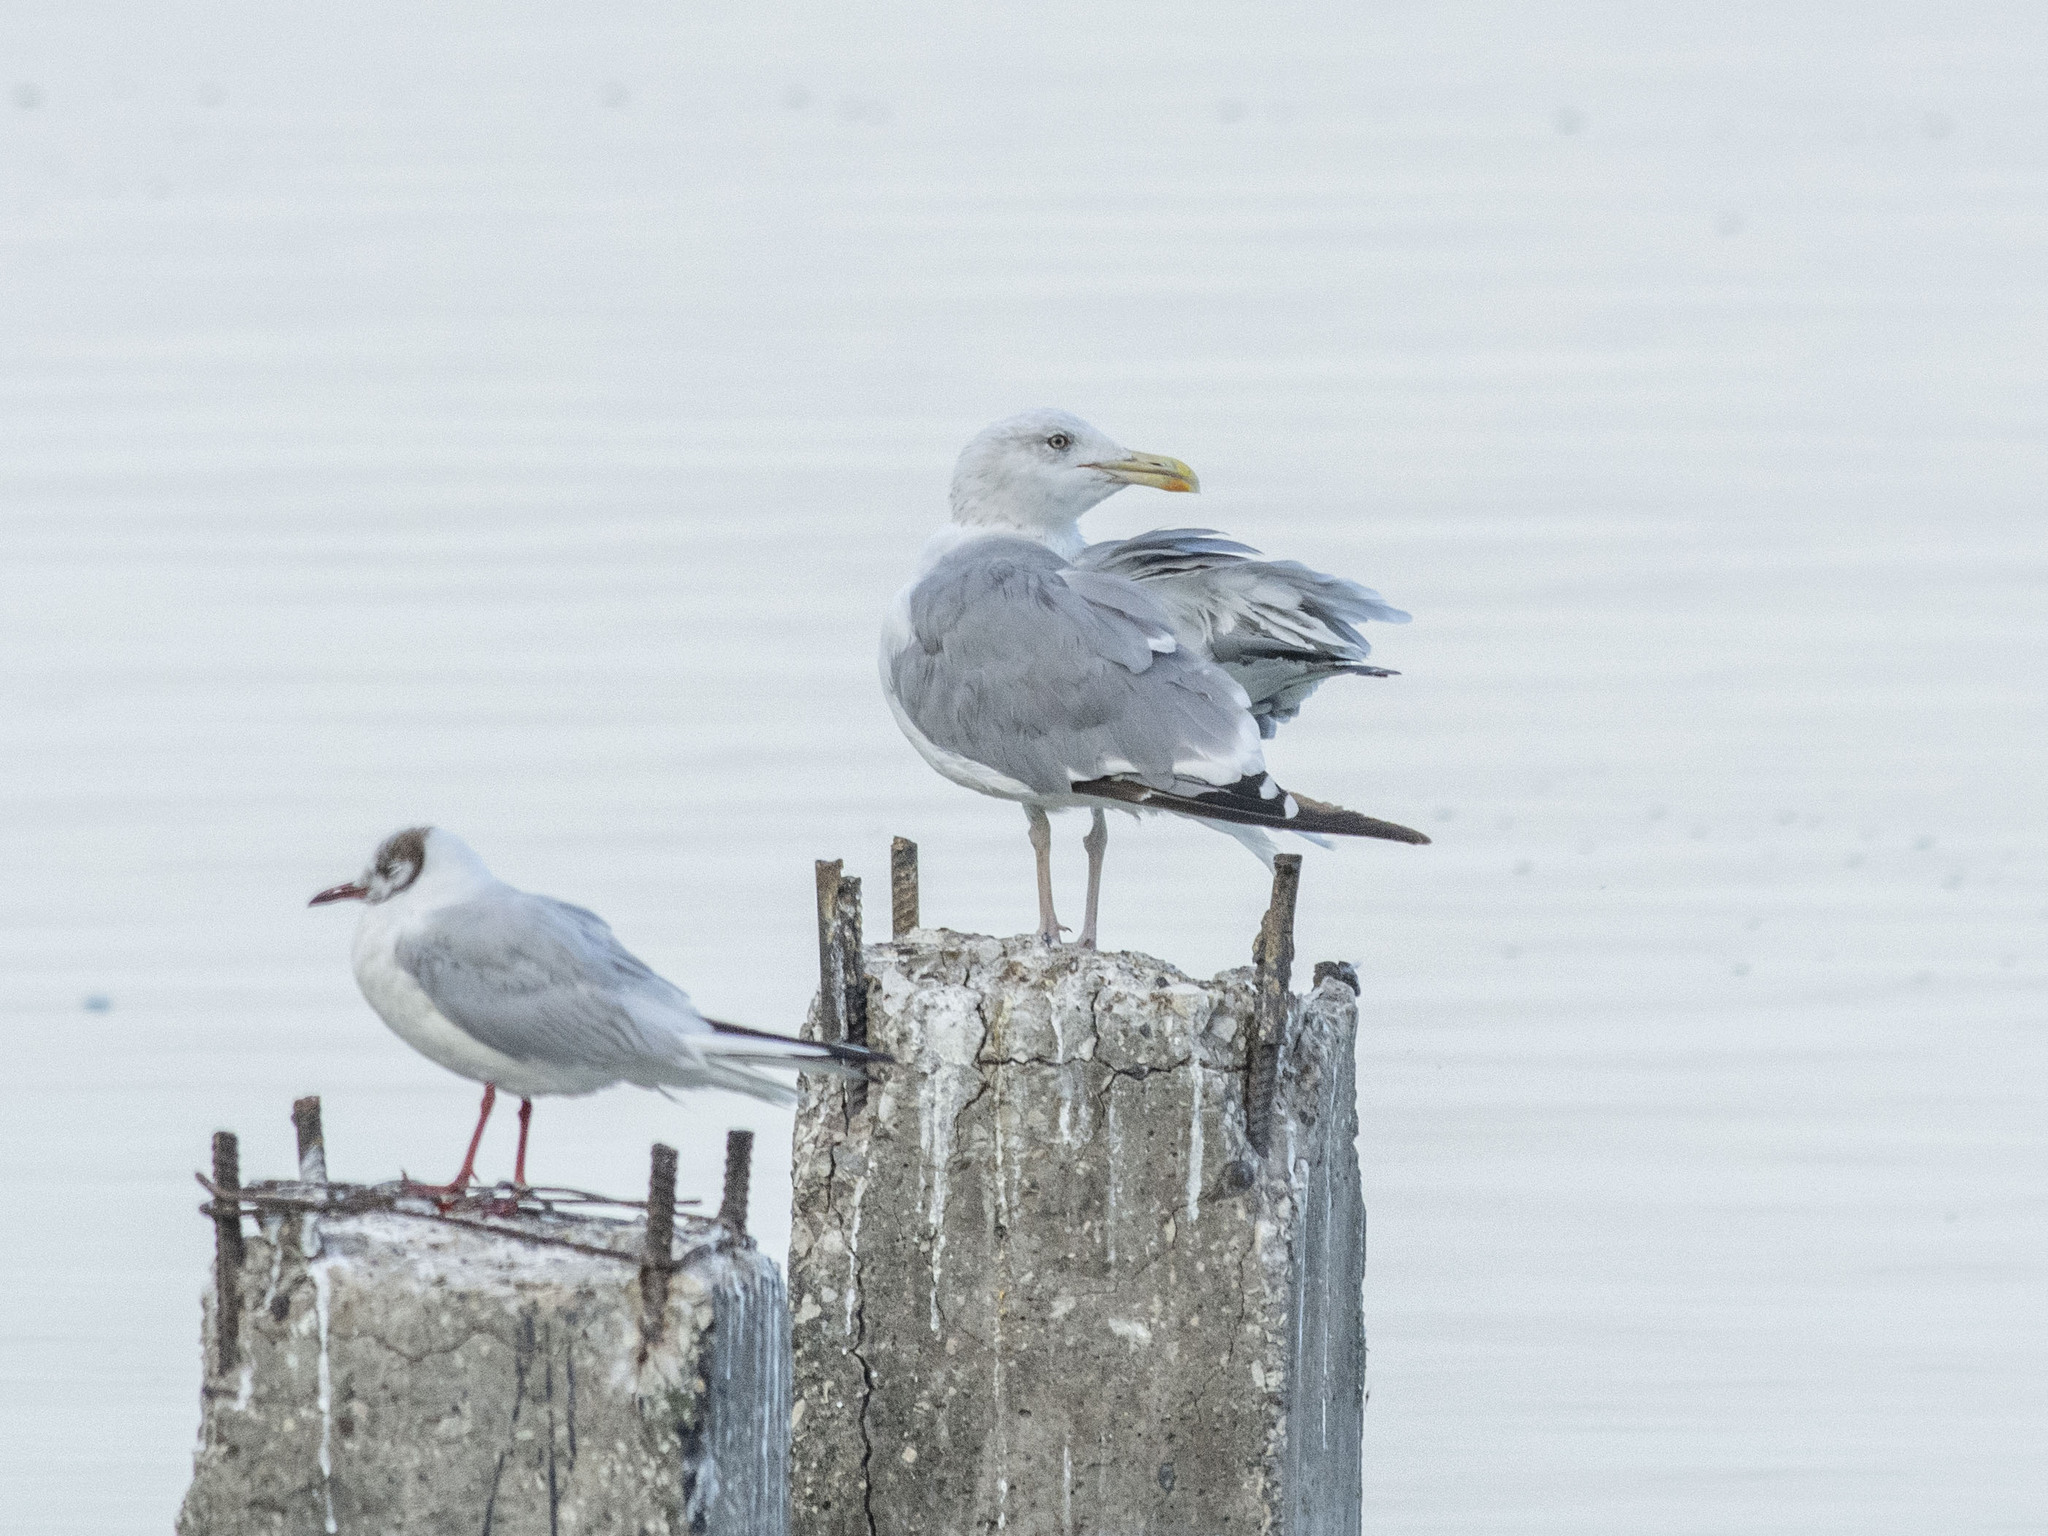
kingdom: Animalia
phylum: Chordata
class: Aves
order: Charadriiformes
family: Laridae
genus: Larus
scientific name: Larus argentatus
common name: Herring gull
